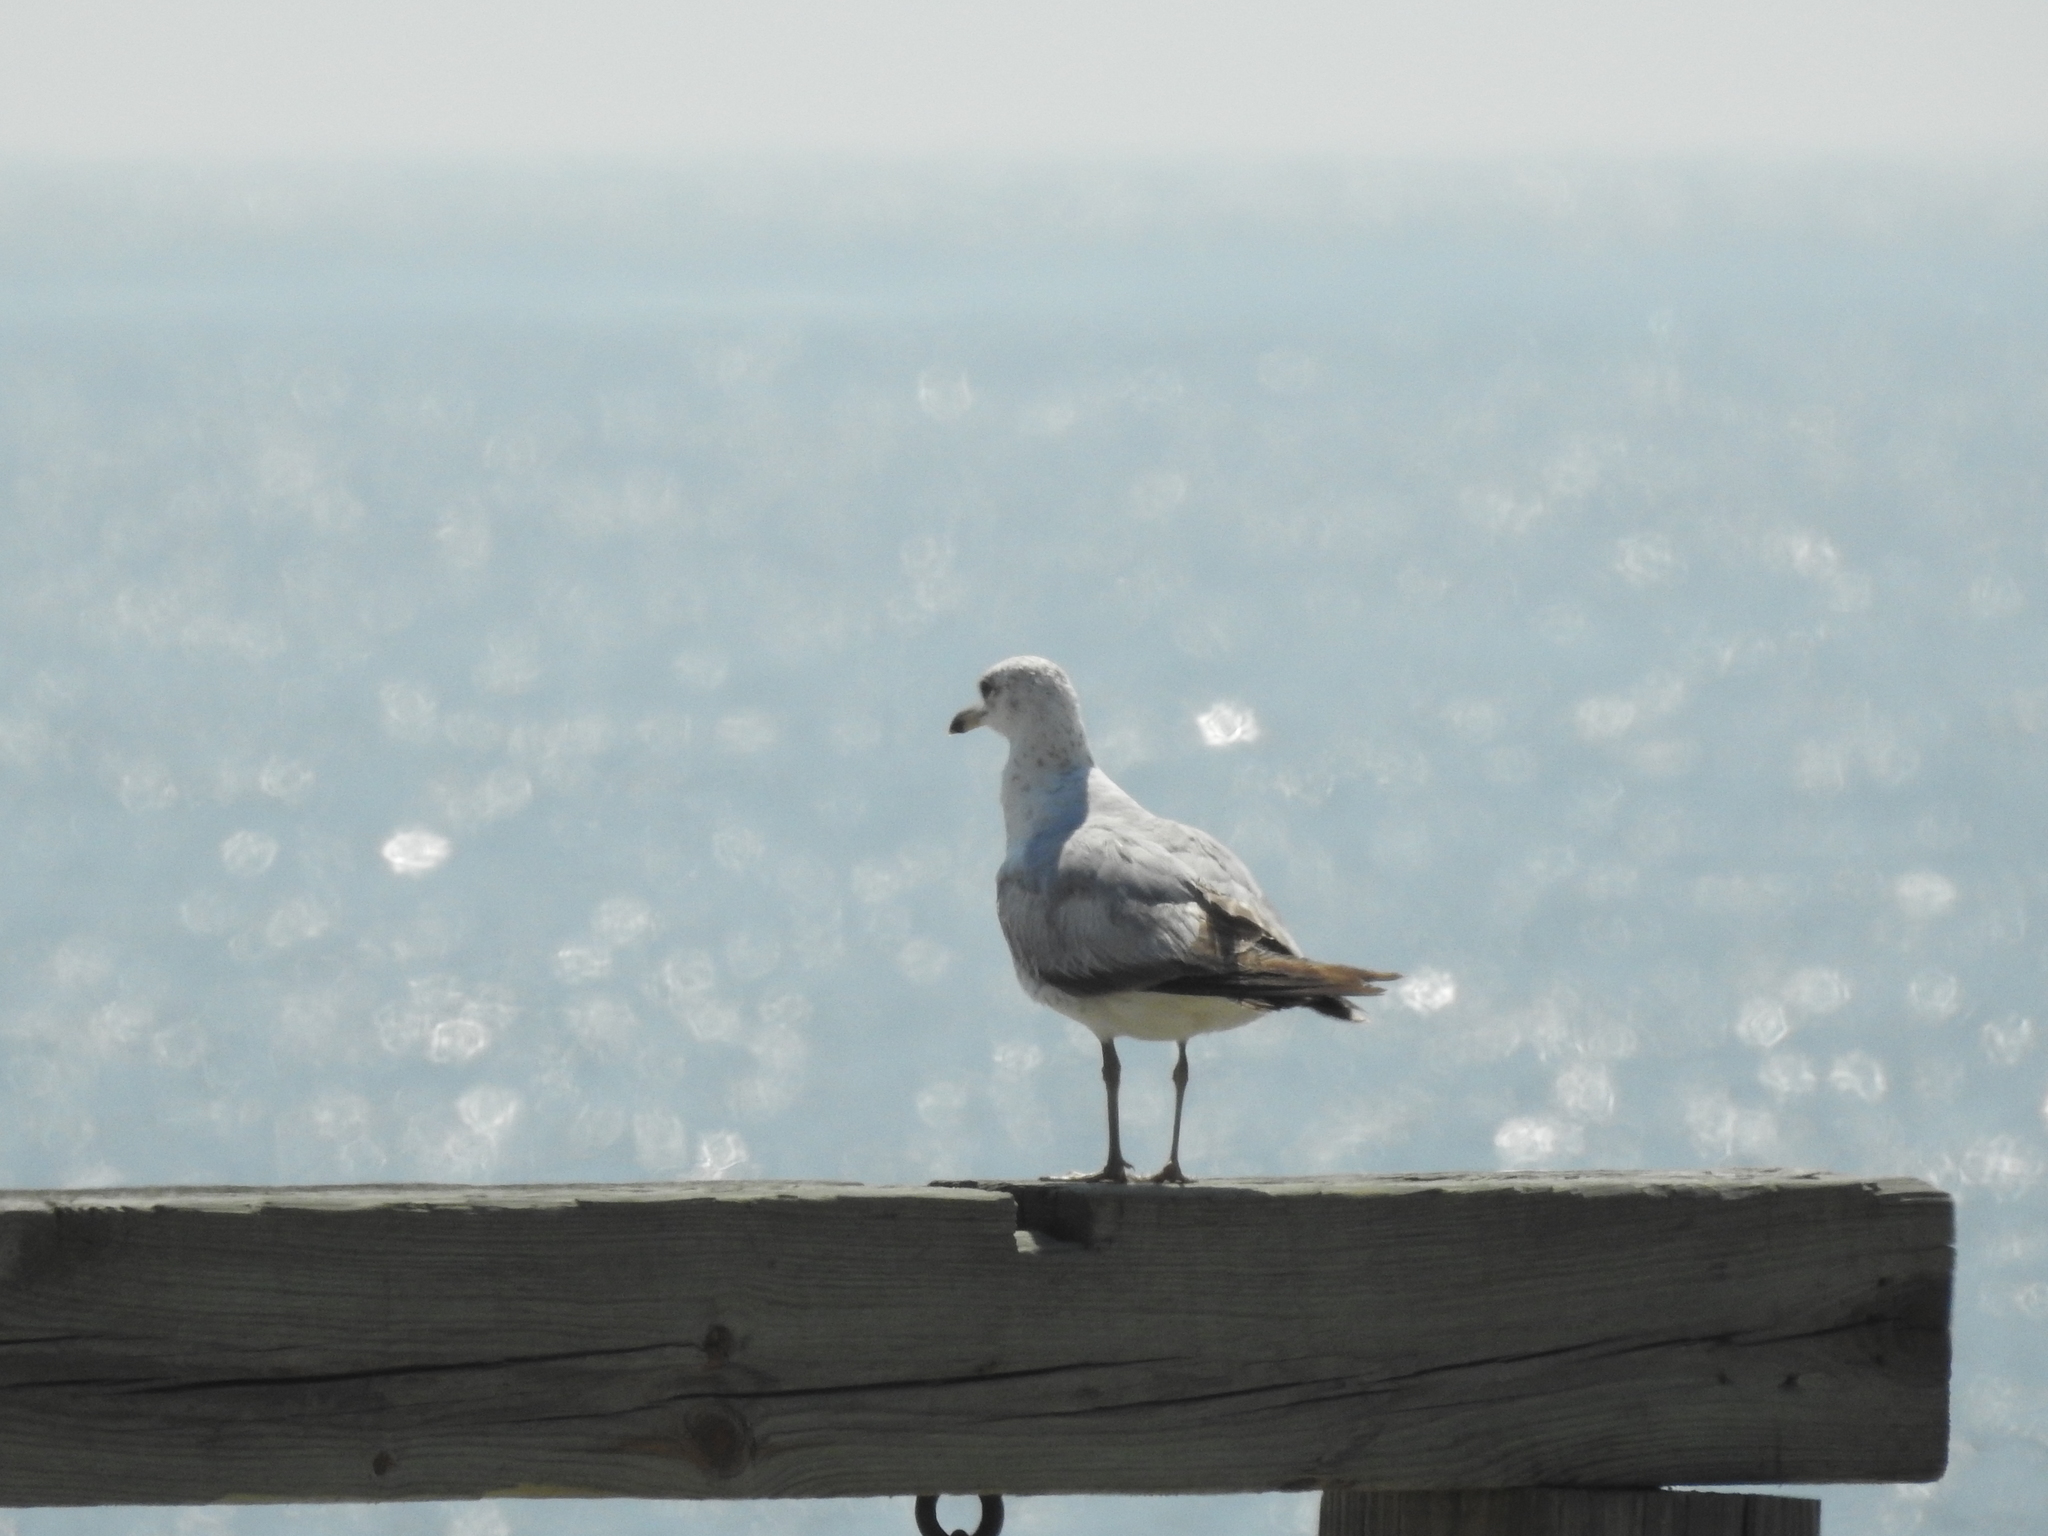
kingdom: Animalia
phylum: Chordata
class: Aves
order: Charadriiformes
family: Laridae
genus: Larus
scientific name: Larus delawarensis
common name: Ring-billed gull
